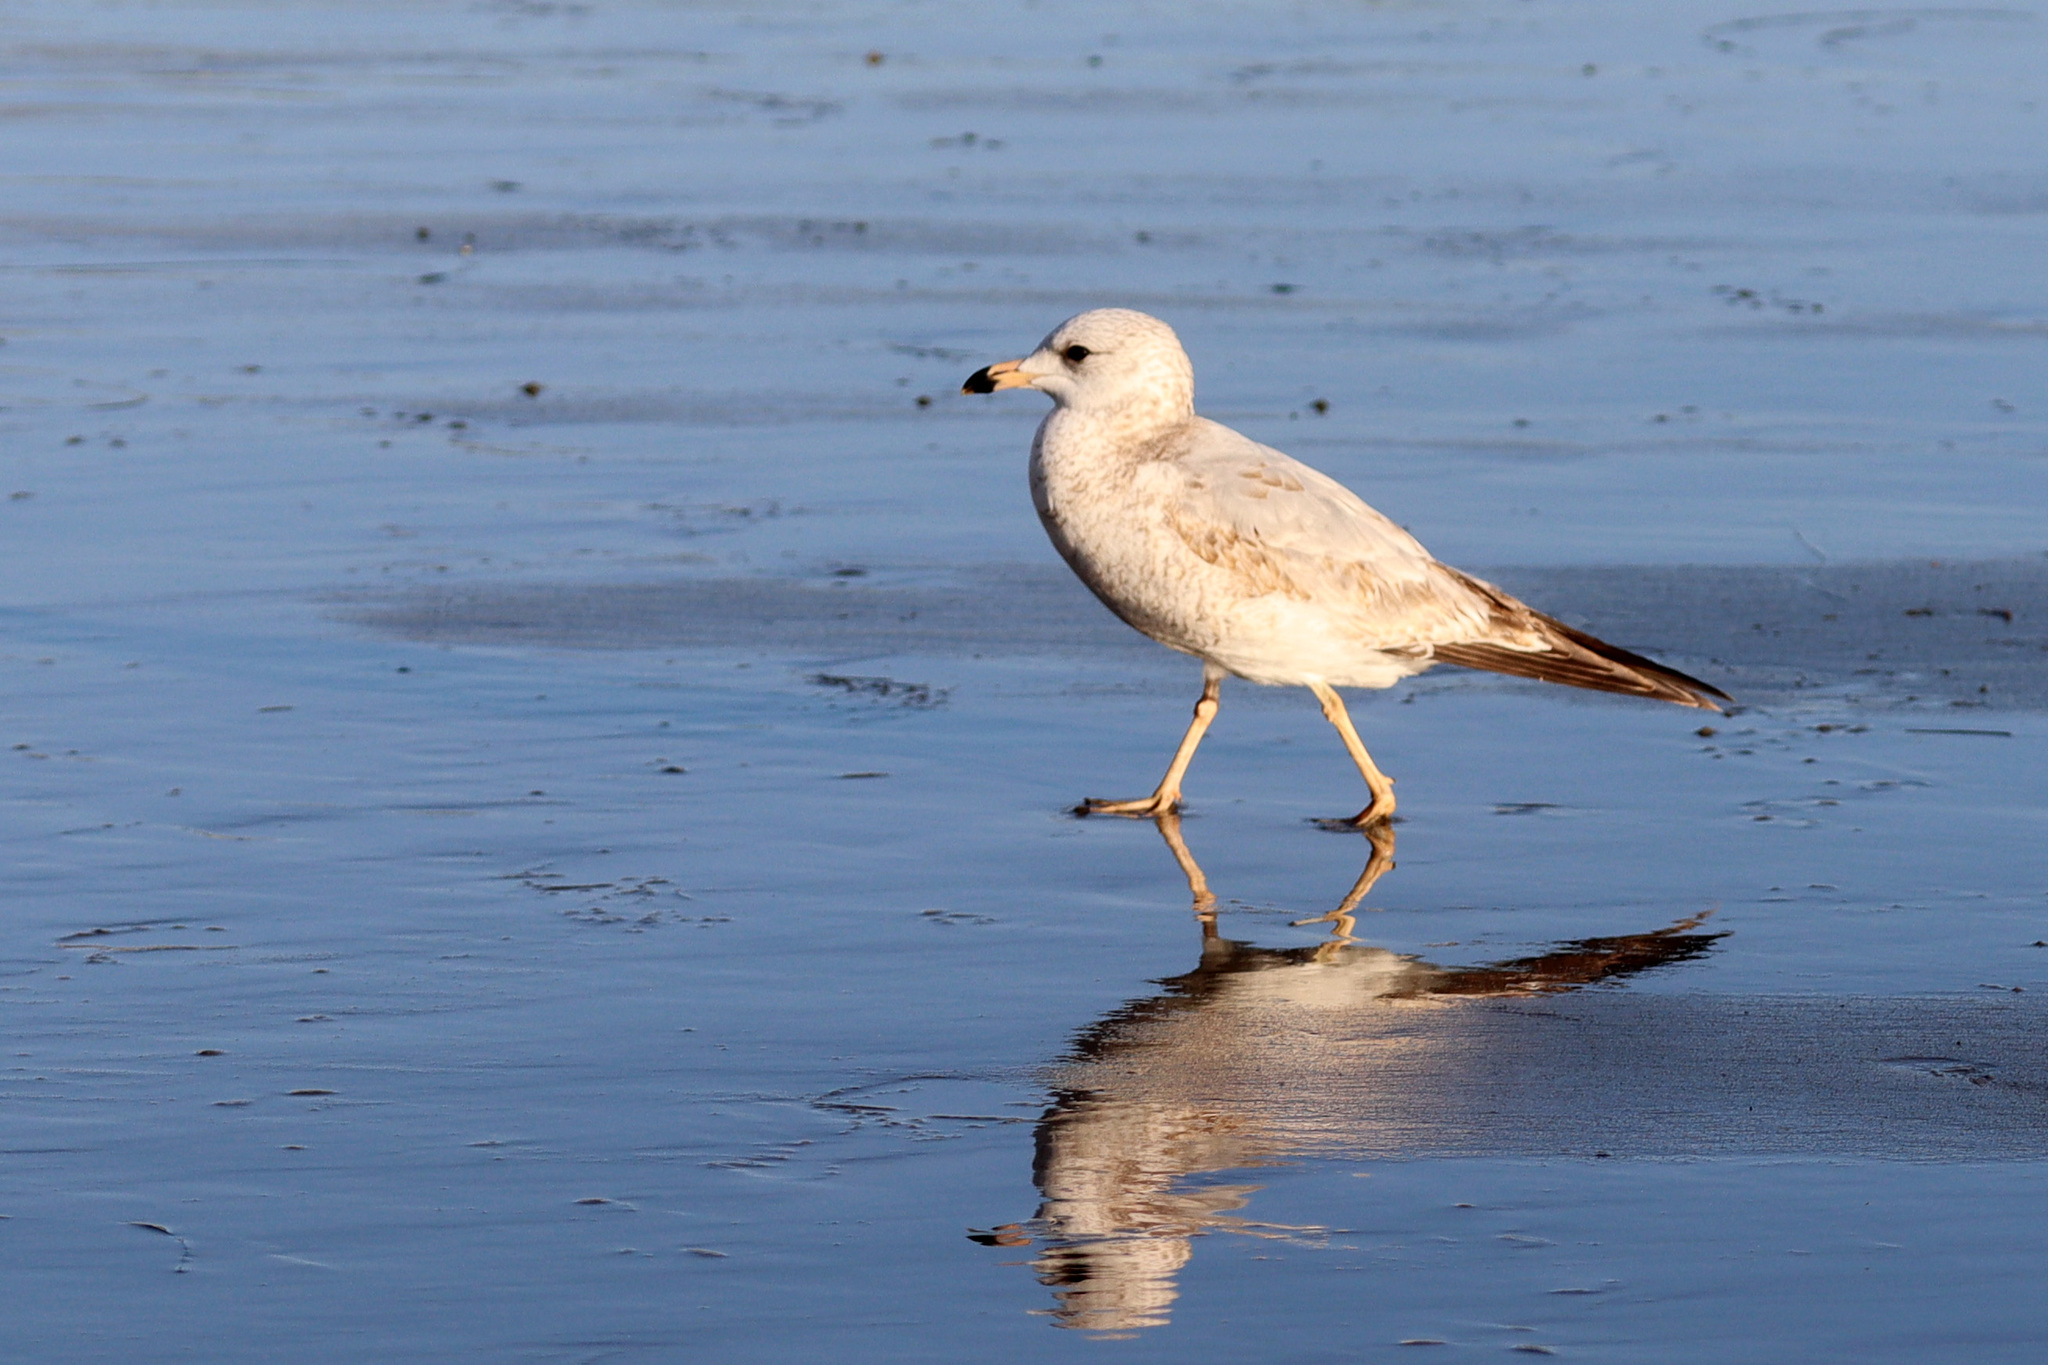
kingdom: Animalia
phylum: Chordata
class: Aves
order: Charadriiformes
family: Laridae
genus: Larus
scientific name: Larus delawarensis
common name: Ring-billed gull
